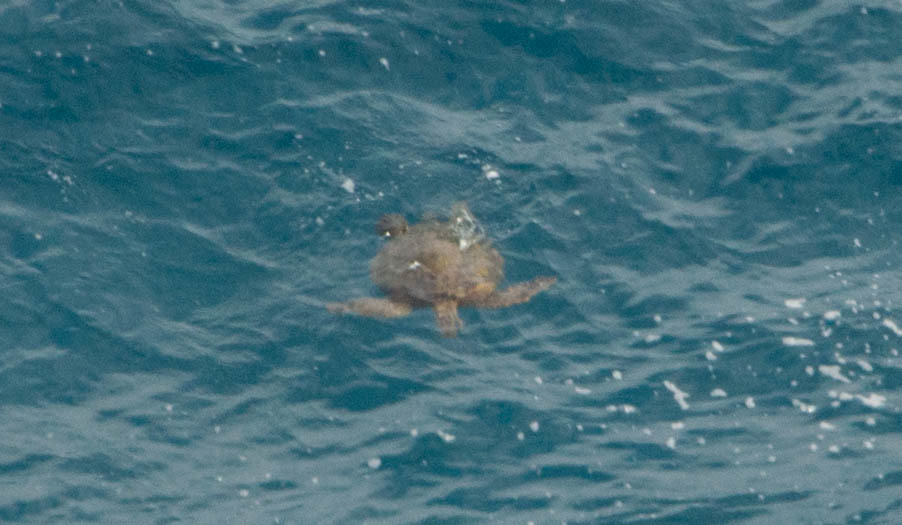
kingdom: Animalia
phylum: Chordata
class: Testudines
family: Cheloniidae
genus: Chelonia
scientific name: Chelonia mydas
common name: Green turtle
